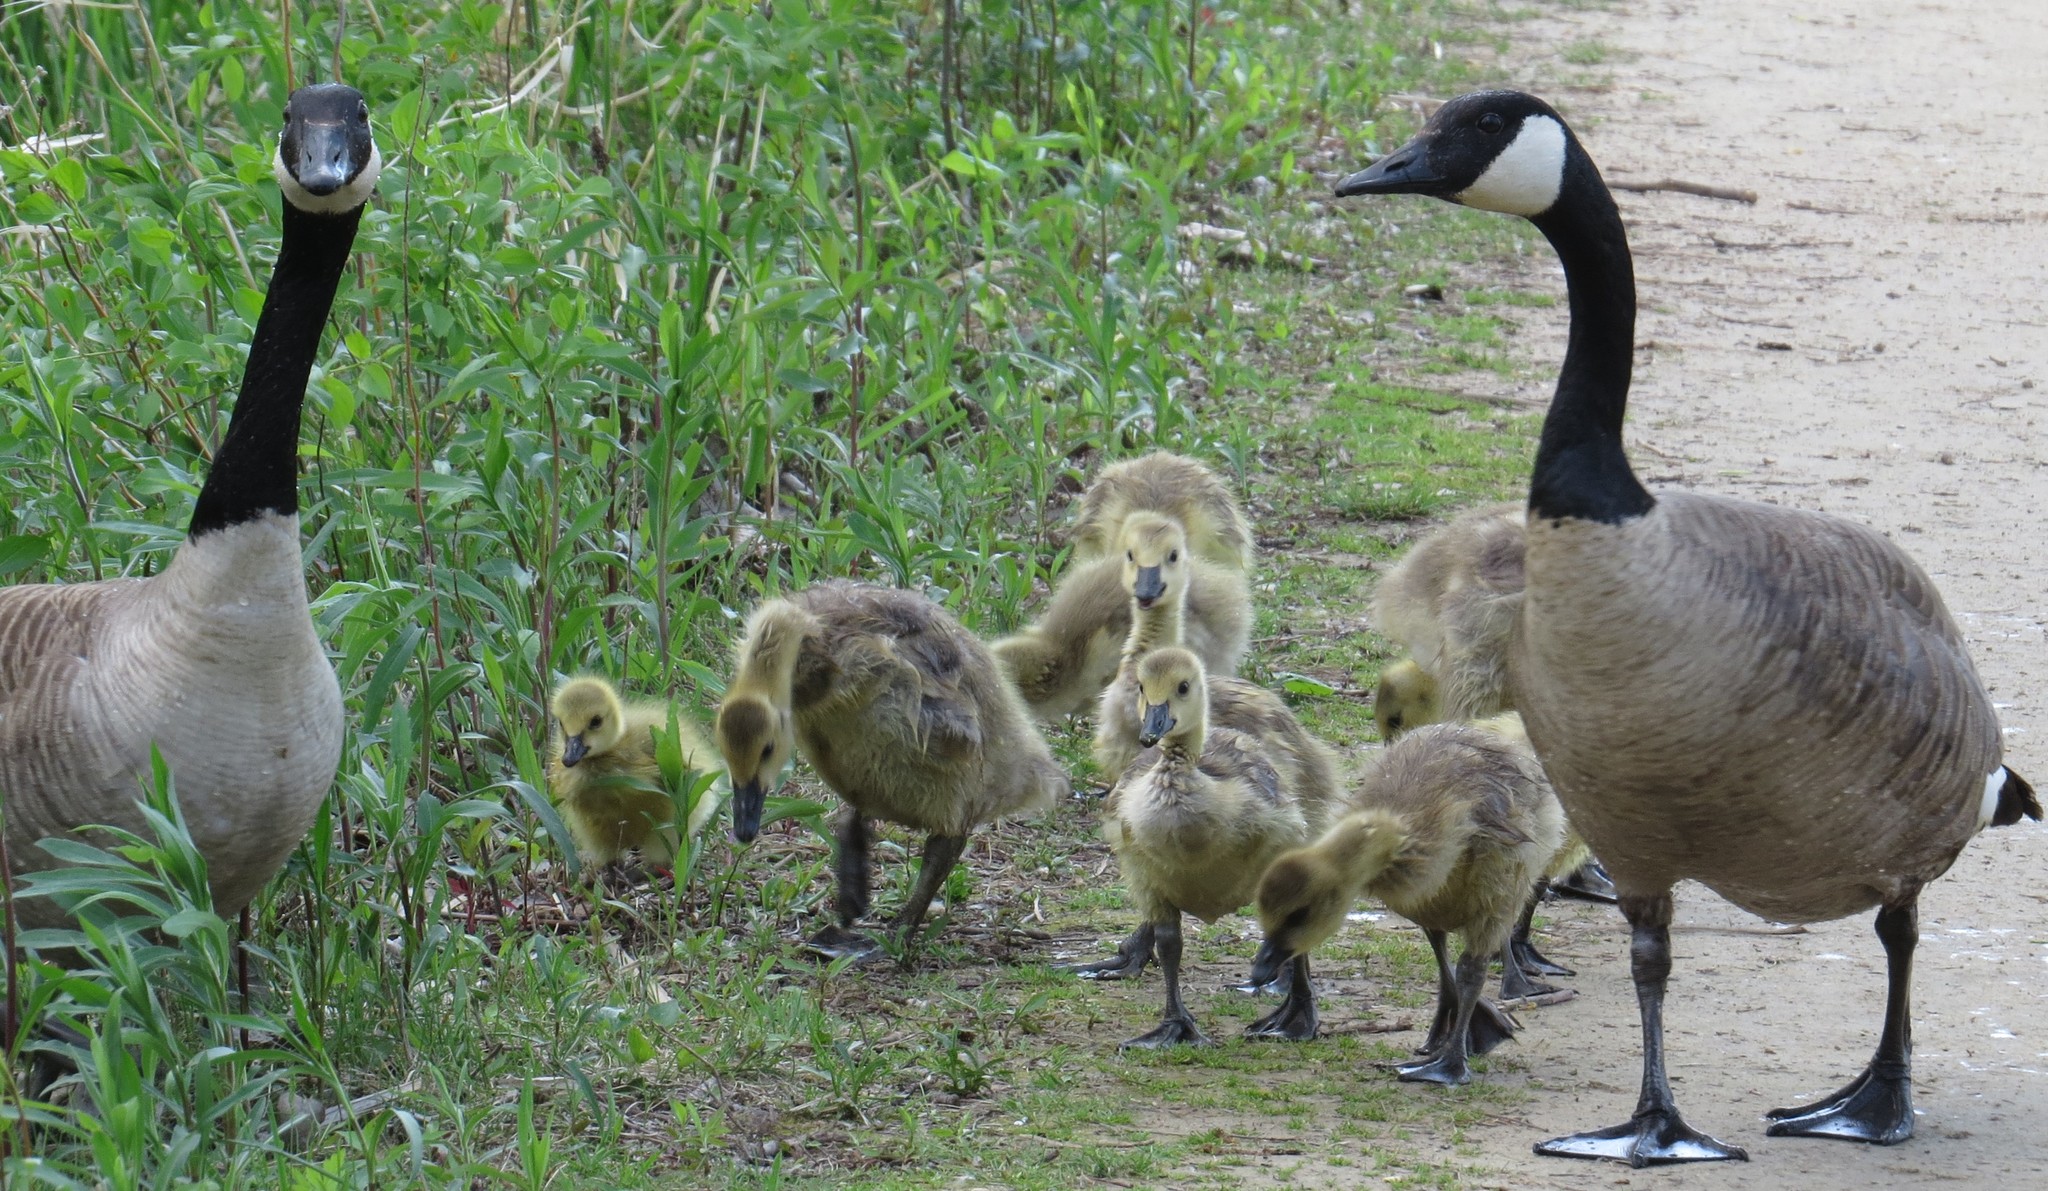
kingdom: Animalia
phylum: Chordata
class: Aves
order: Anseriformes
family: Anatidae
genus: Branta
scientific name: Branta canadensis
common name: Canada goose
